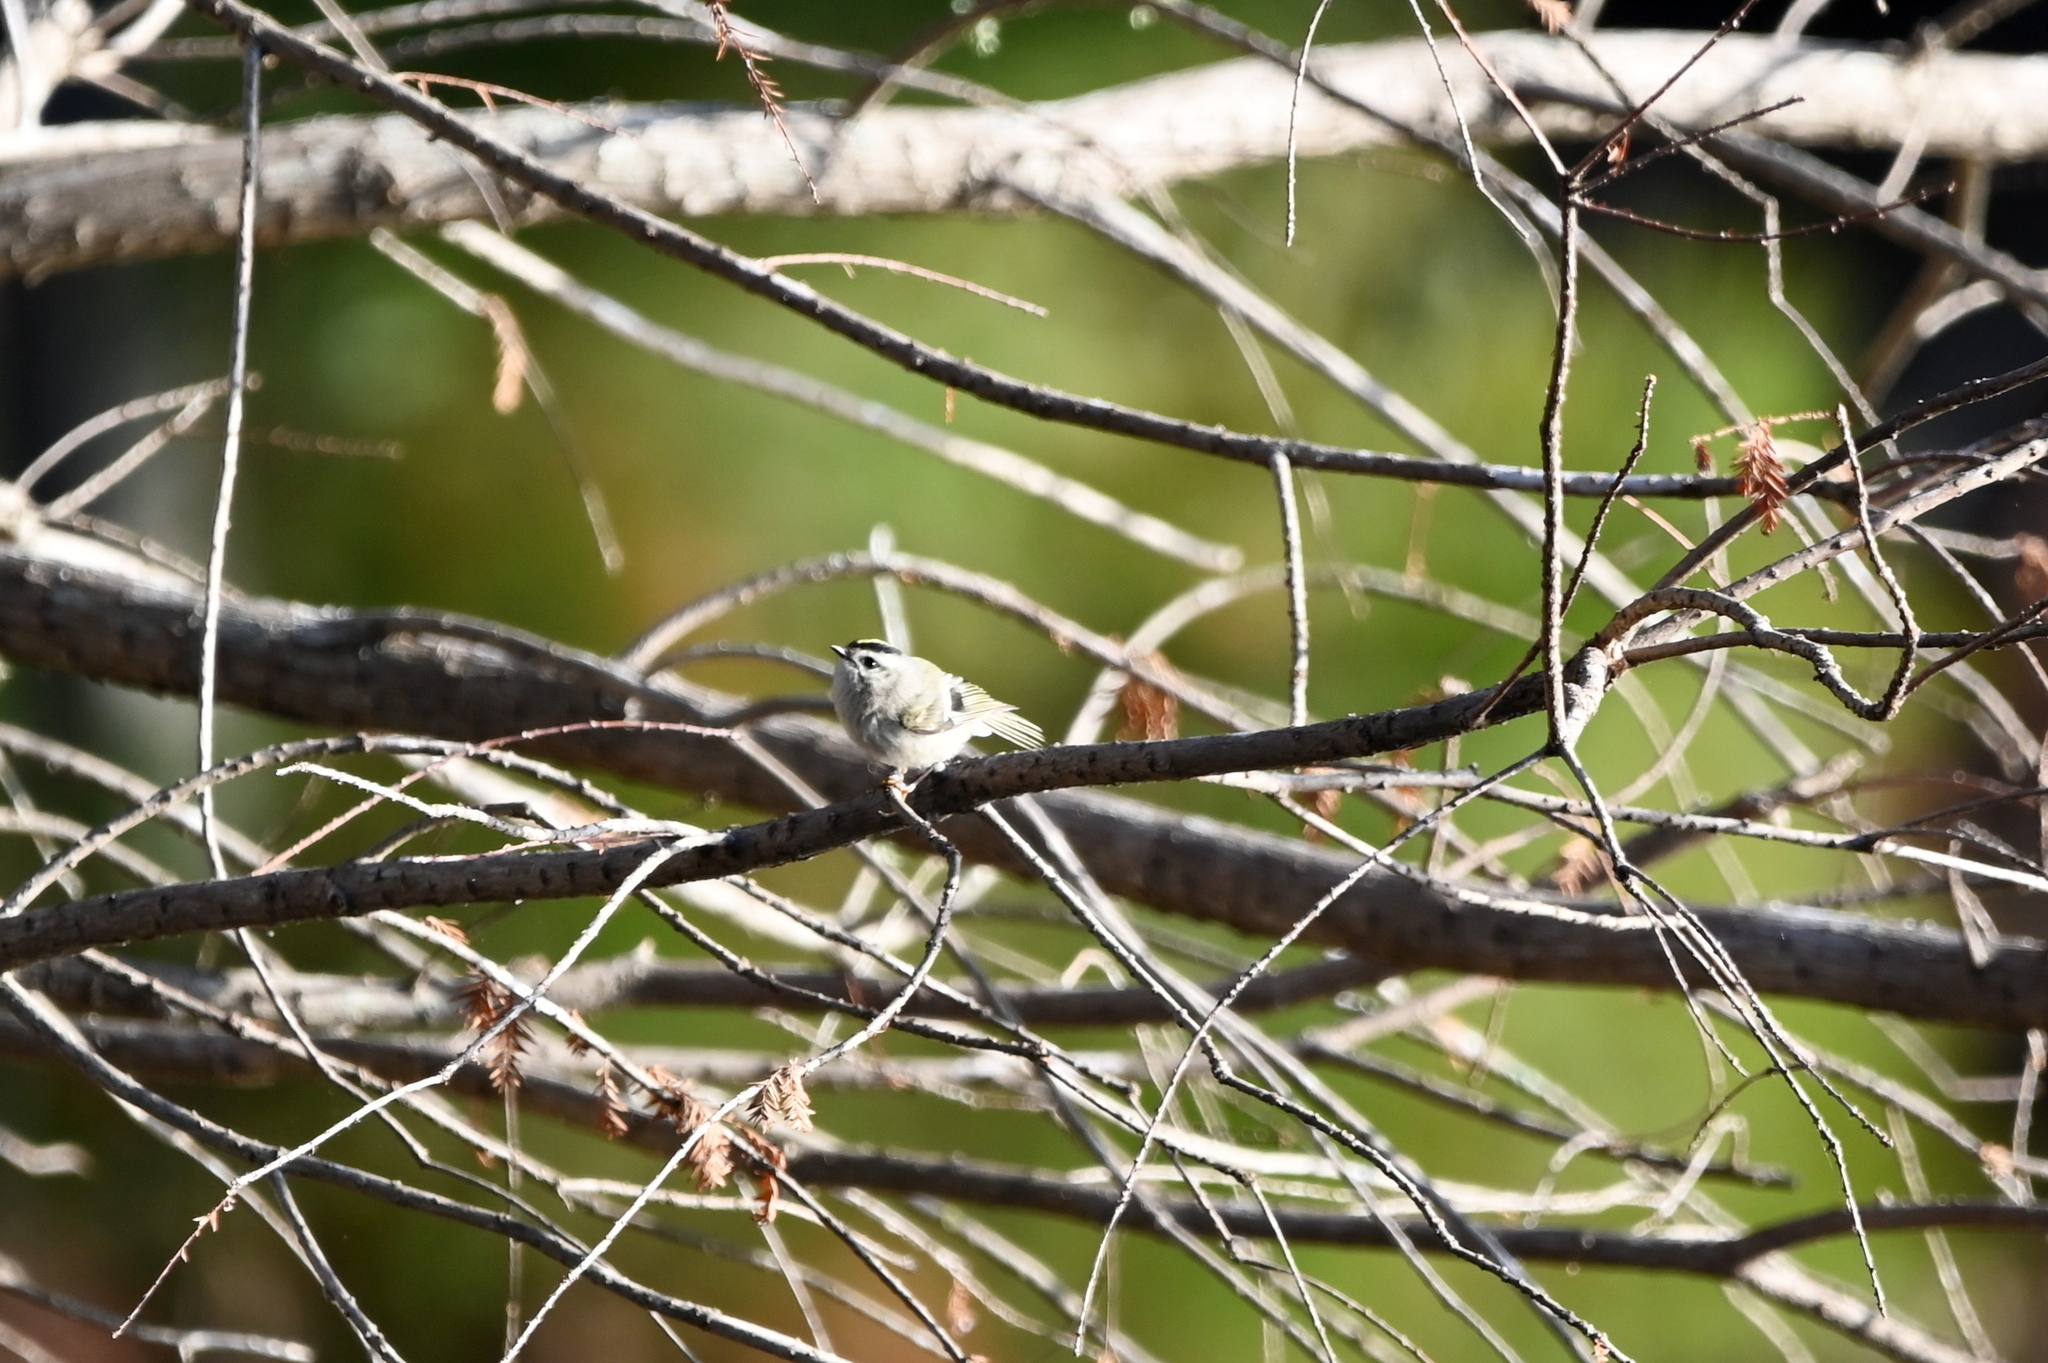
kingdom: Animalia
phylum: Chordata
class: Aves
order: Passeriformes
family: Regulidae
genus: Regulus
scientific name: Regulus satrapa
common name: Golden-crowned kinglet
